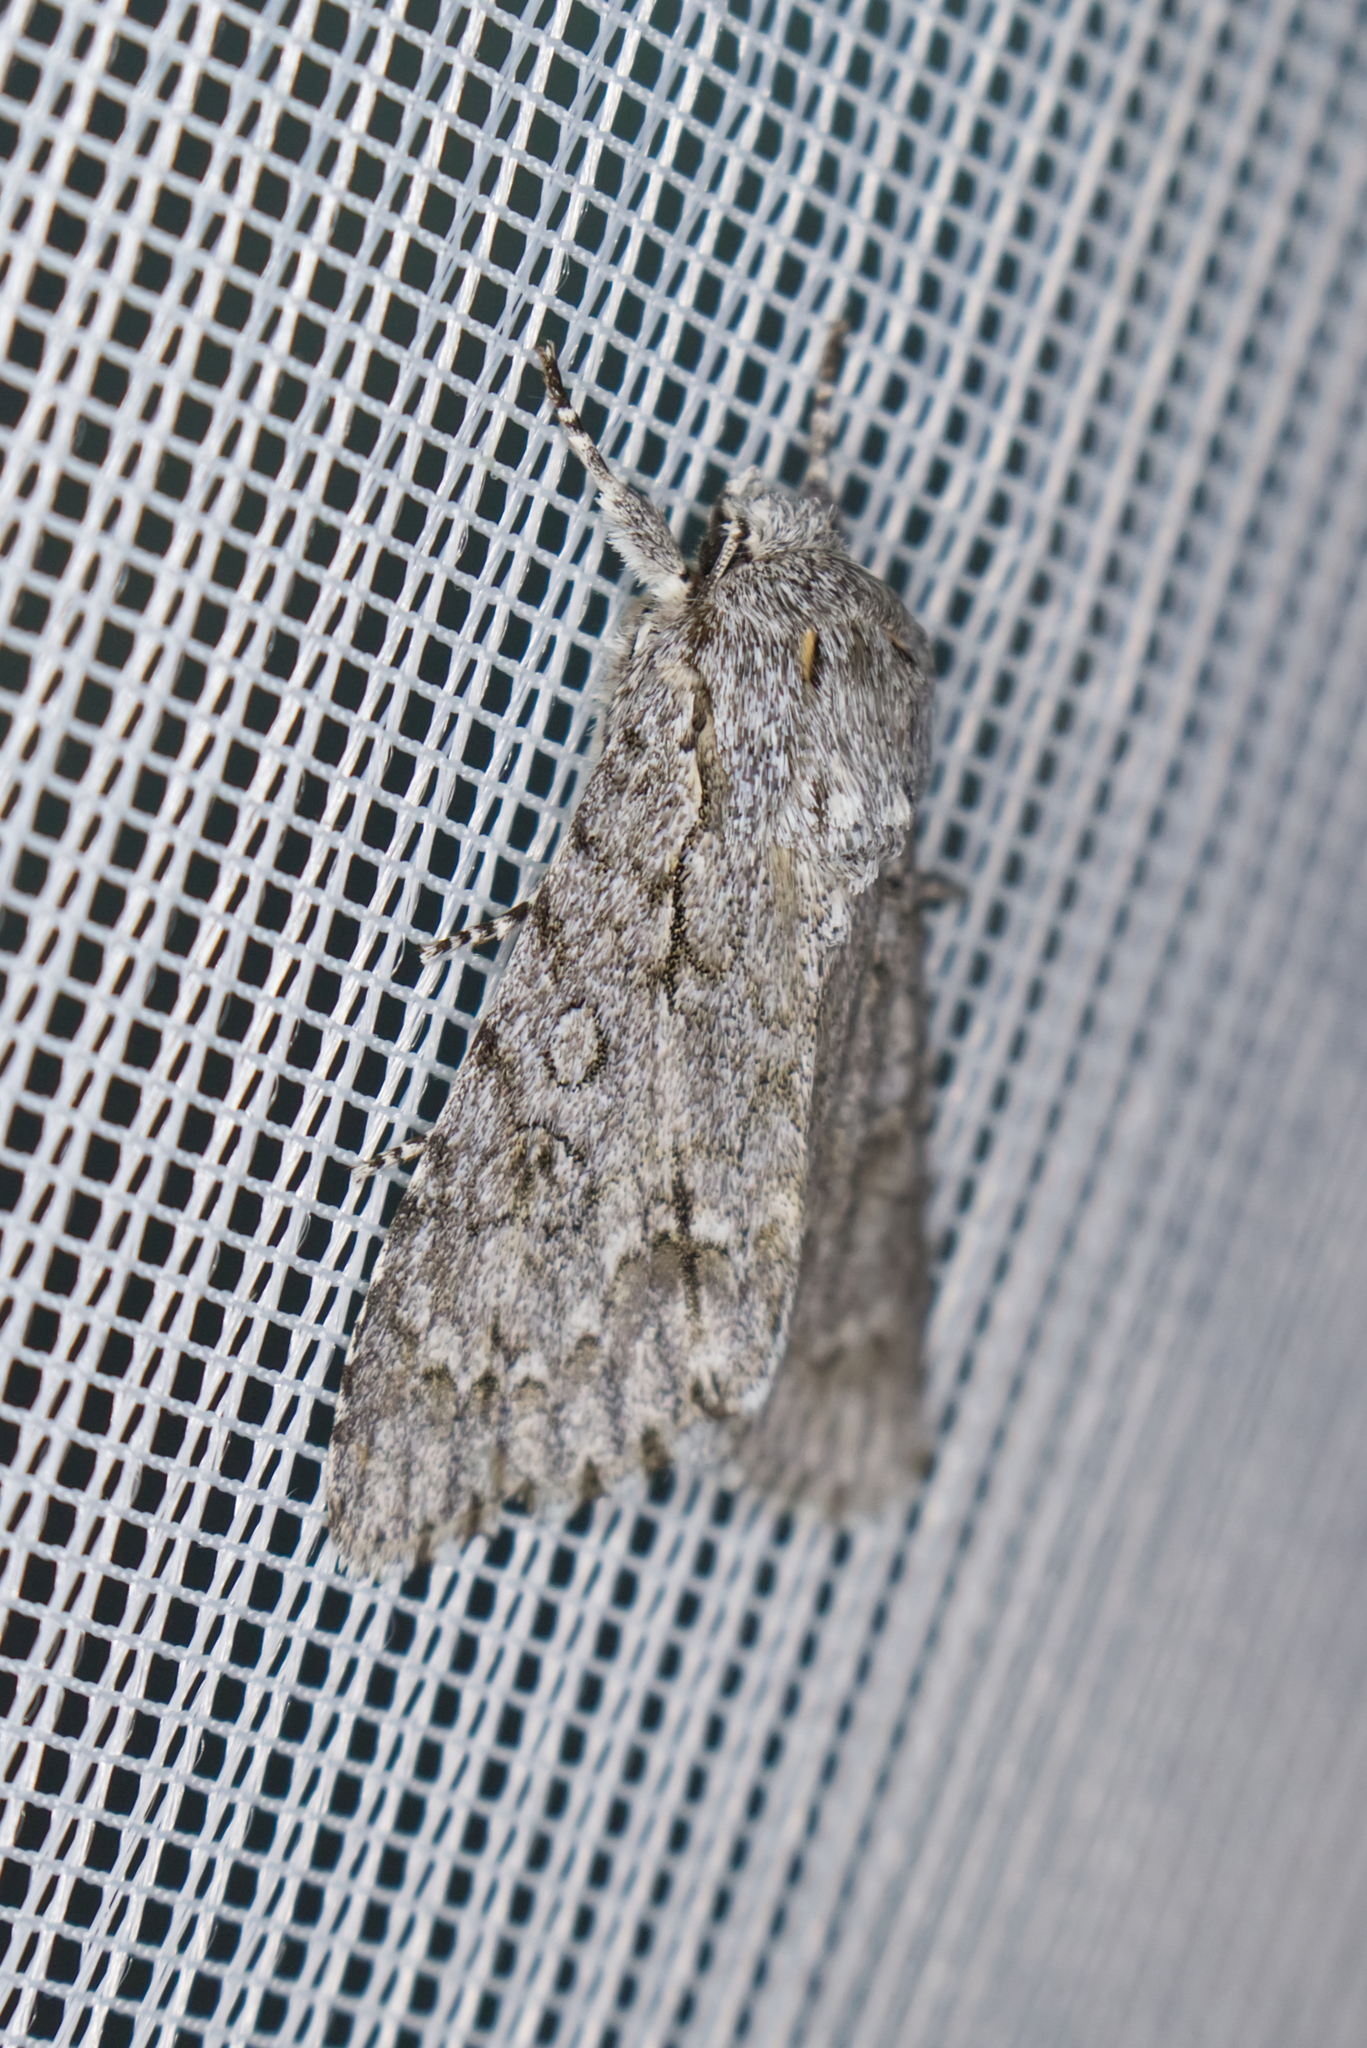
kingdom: Animalia
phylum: Arthropoda
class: Insecta
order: Lepidoptera
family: Noctuidae
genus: Acronicta
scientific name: Acronicta aceris
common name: Sycamore
